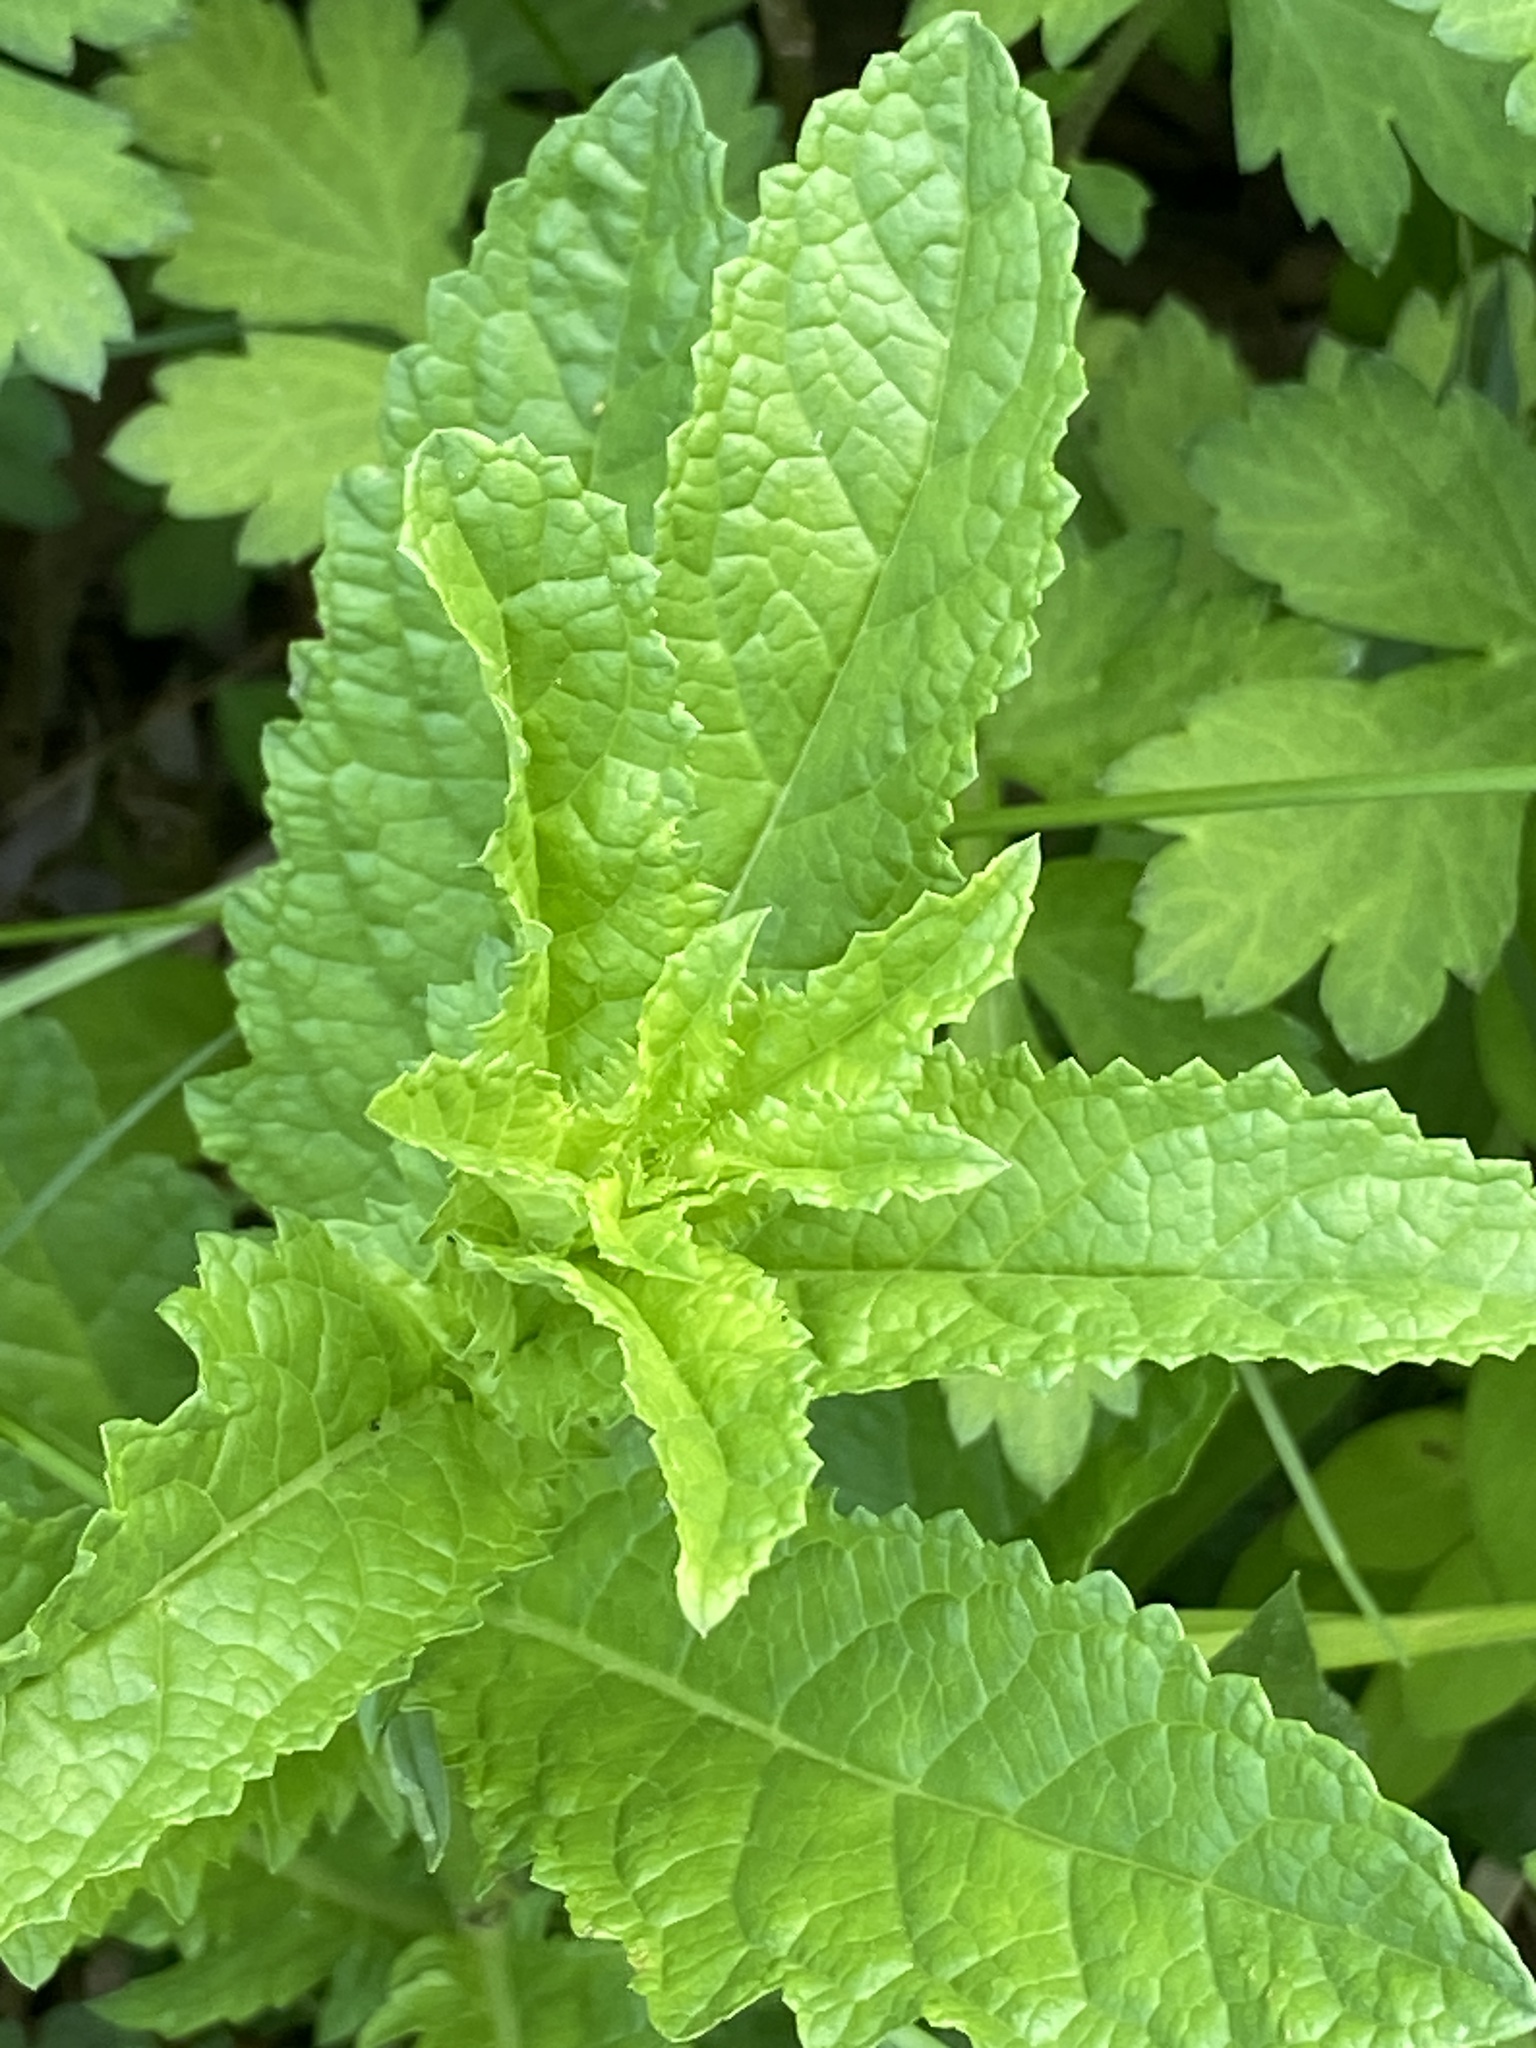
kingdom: Plantae
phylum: Tracheophyta
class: Magnoliopsida
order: Lamiales
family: Scrophulariaceae
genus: Verbascum
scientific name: Verbascum blattaria
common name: Moth mullein
